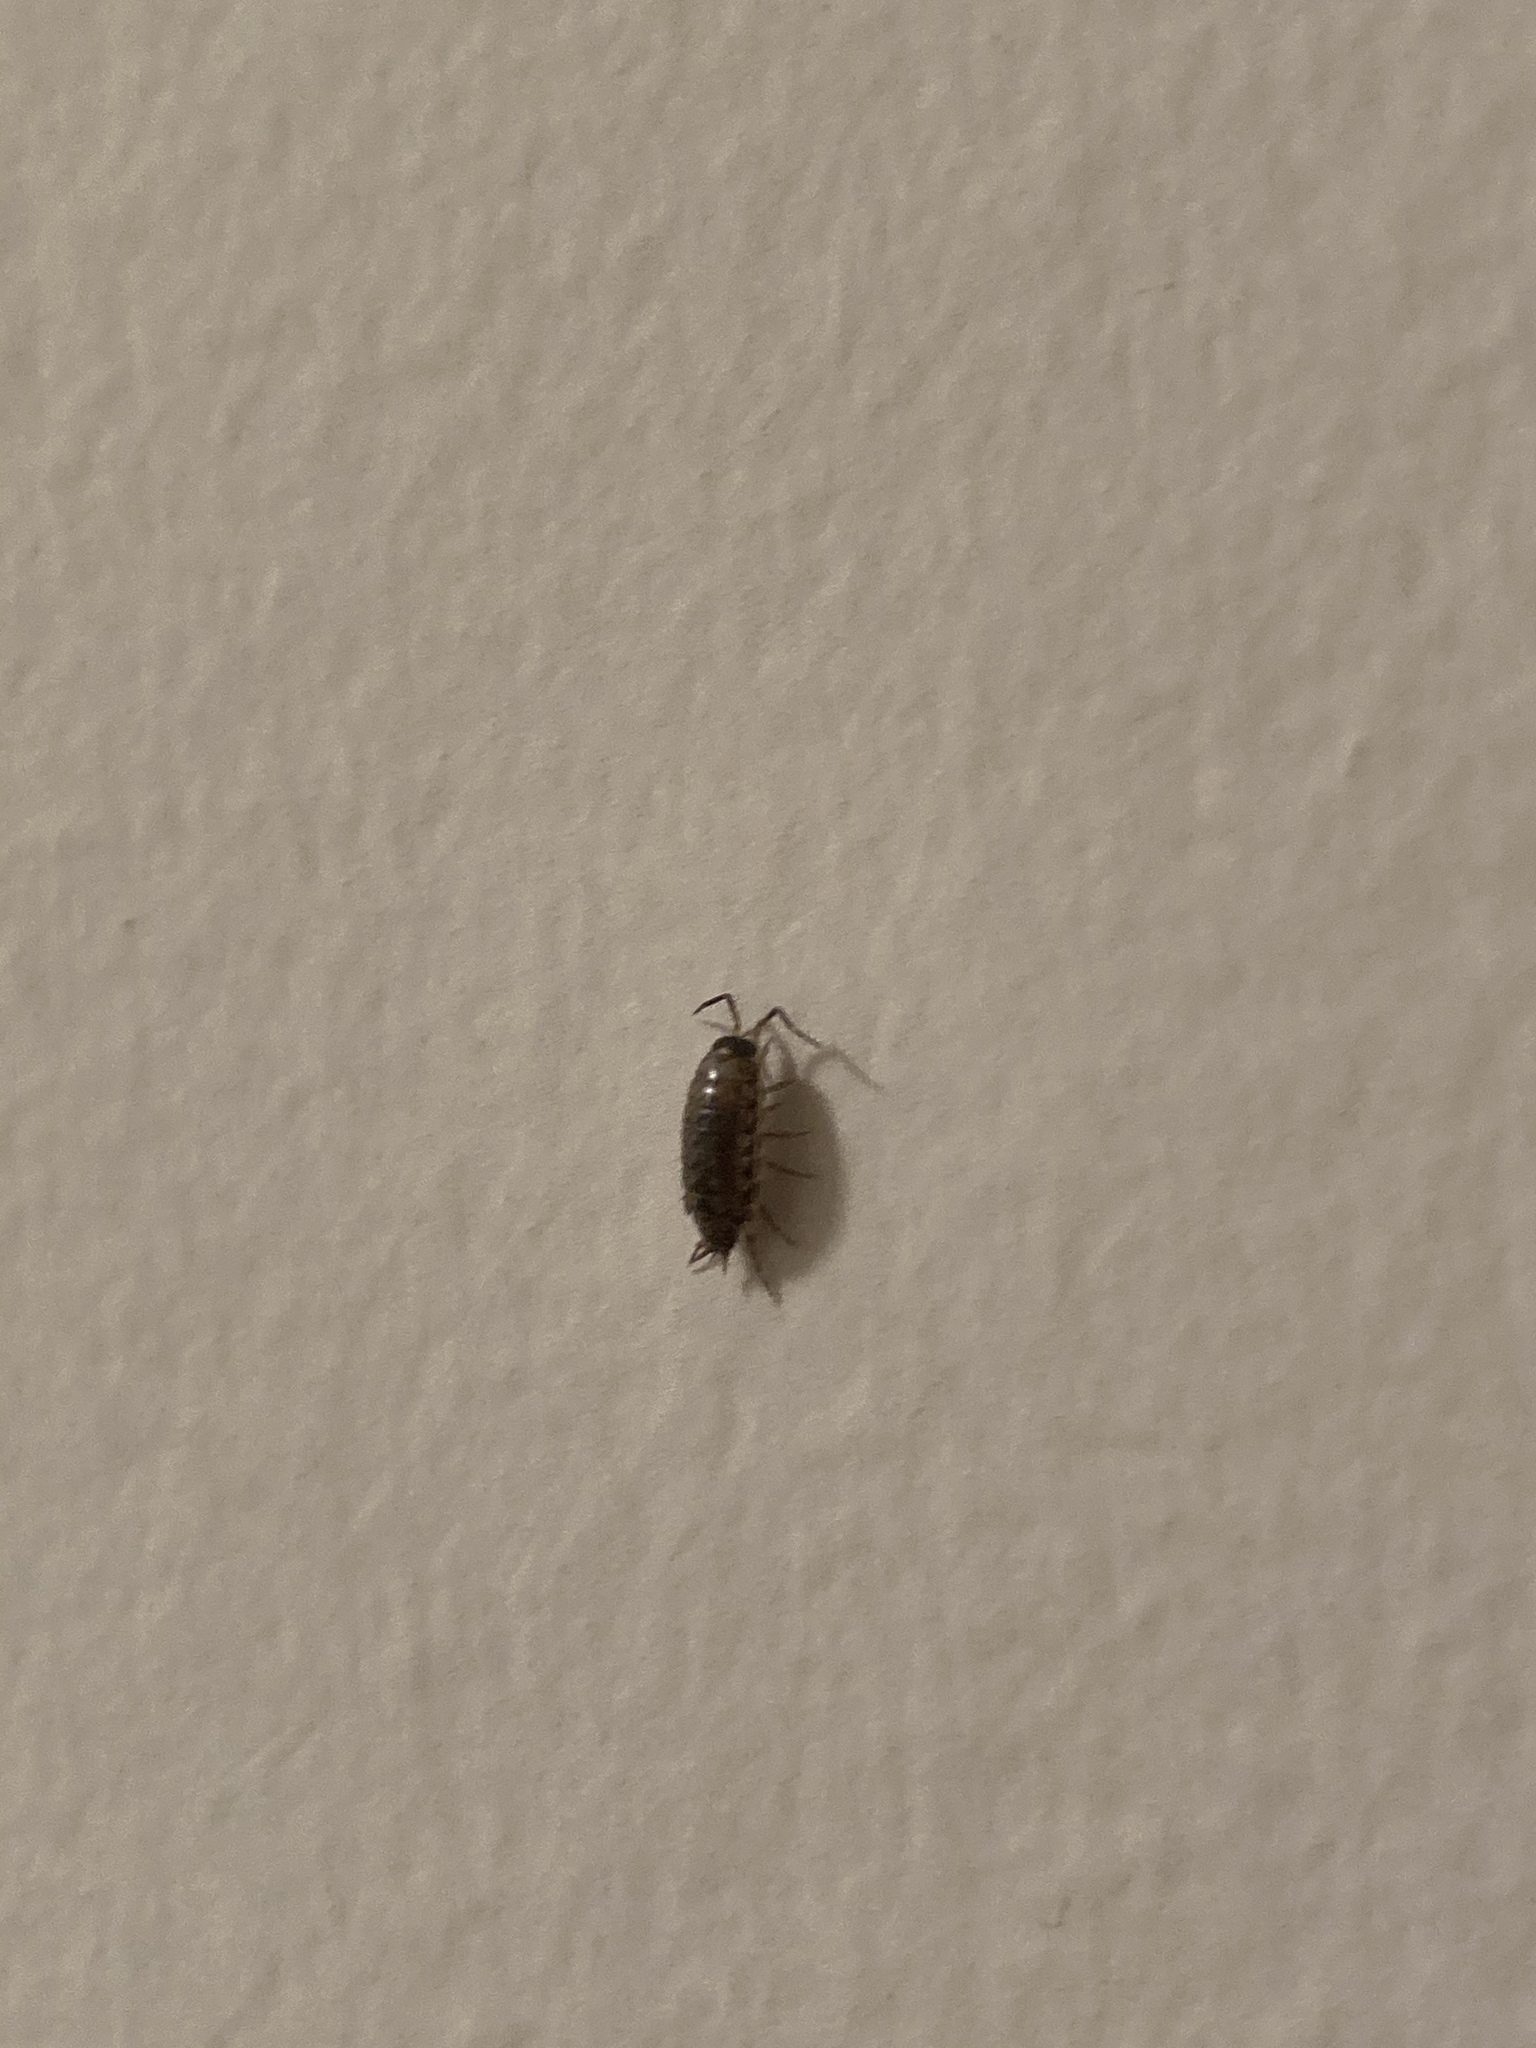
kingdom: Animalia
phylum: Arthropoda
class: Malacostraca
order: Isopoda
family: Philosciidae
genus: Philoscia
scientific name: Philoscia muscorum
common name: Common striped woodlouse
